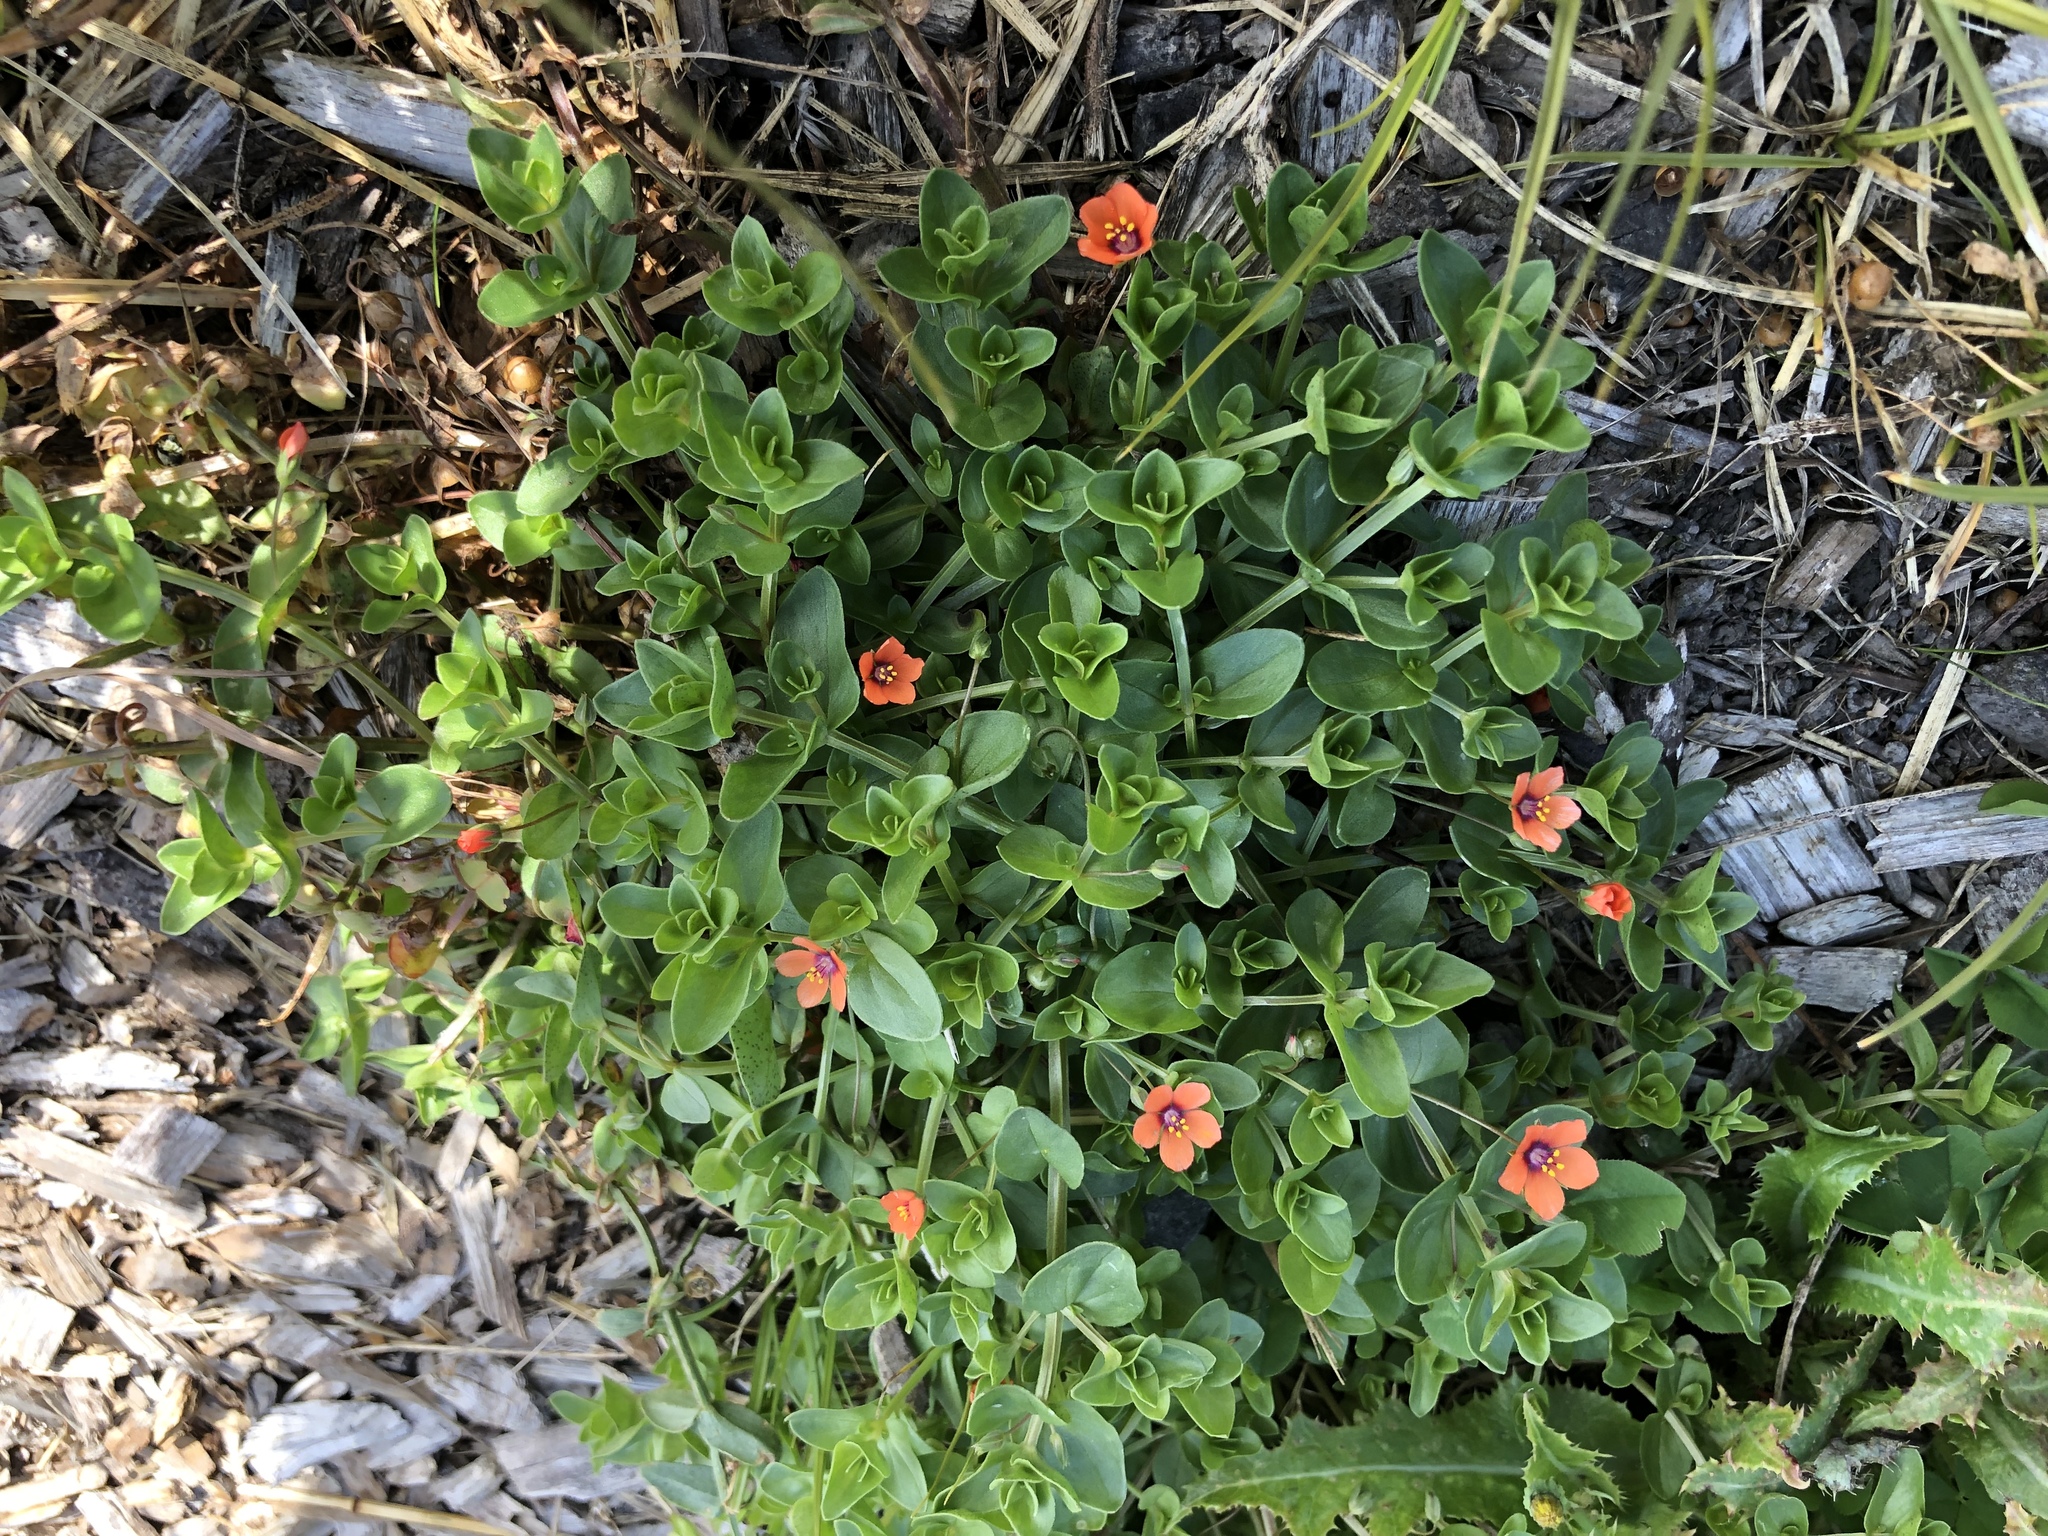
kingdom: Plantae
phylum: Tracheophyta
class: Magnoliopsida
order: Ericales
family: Primulaceae
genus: Lysimachia
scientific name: Lysimachia arvensis
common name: Scarlet pimpernel
